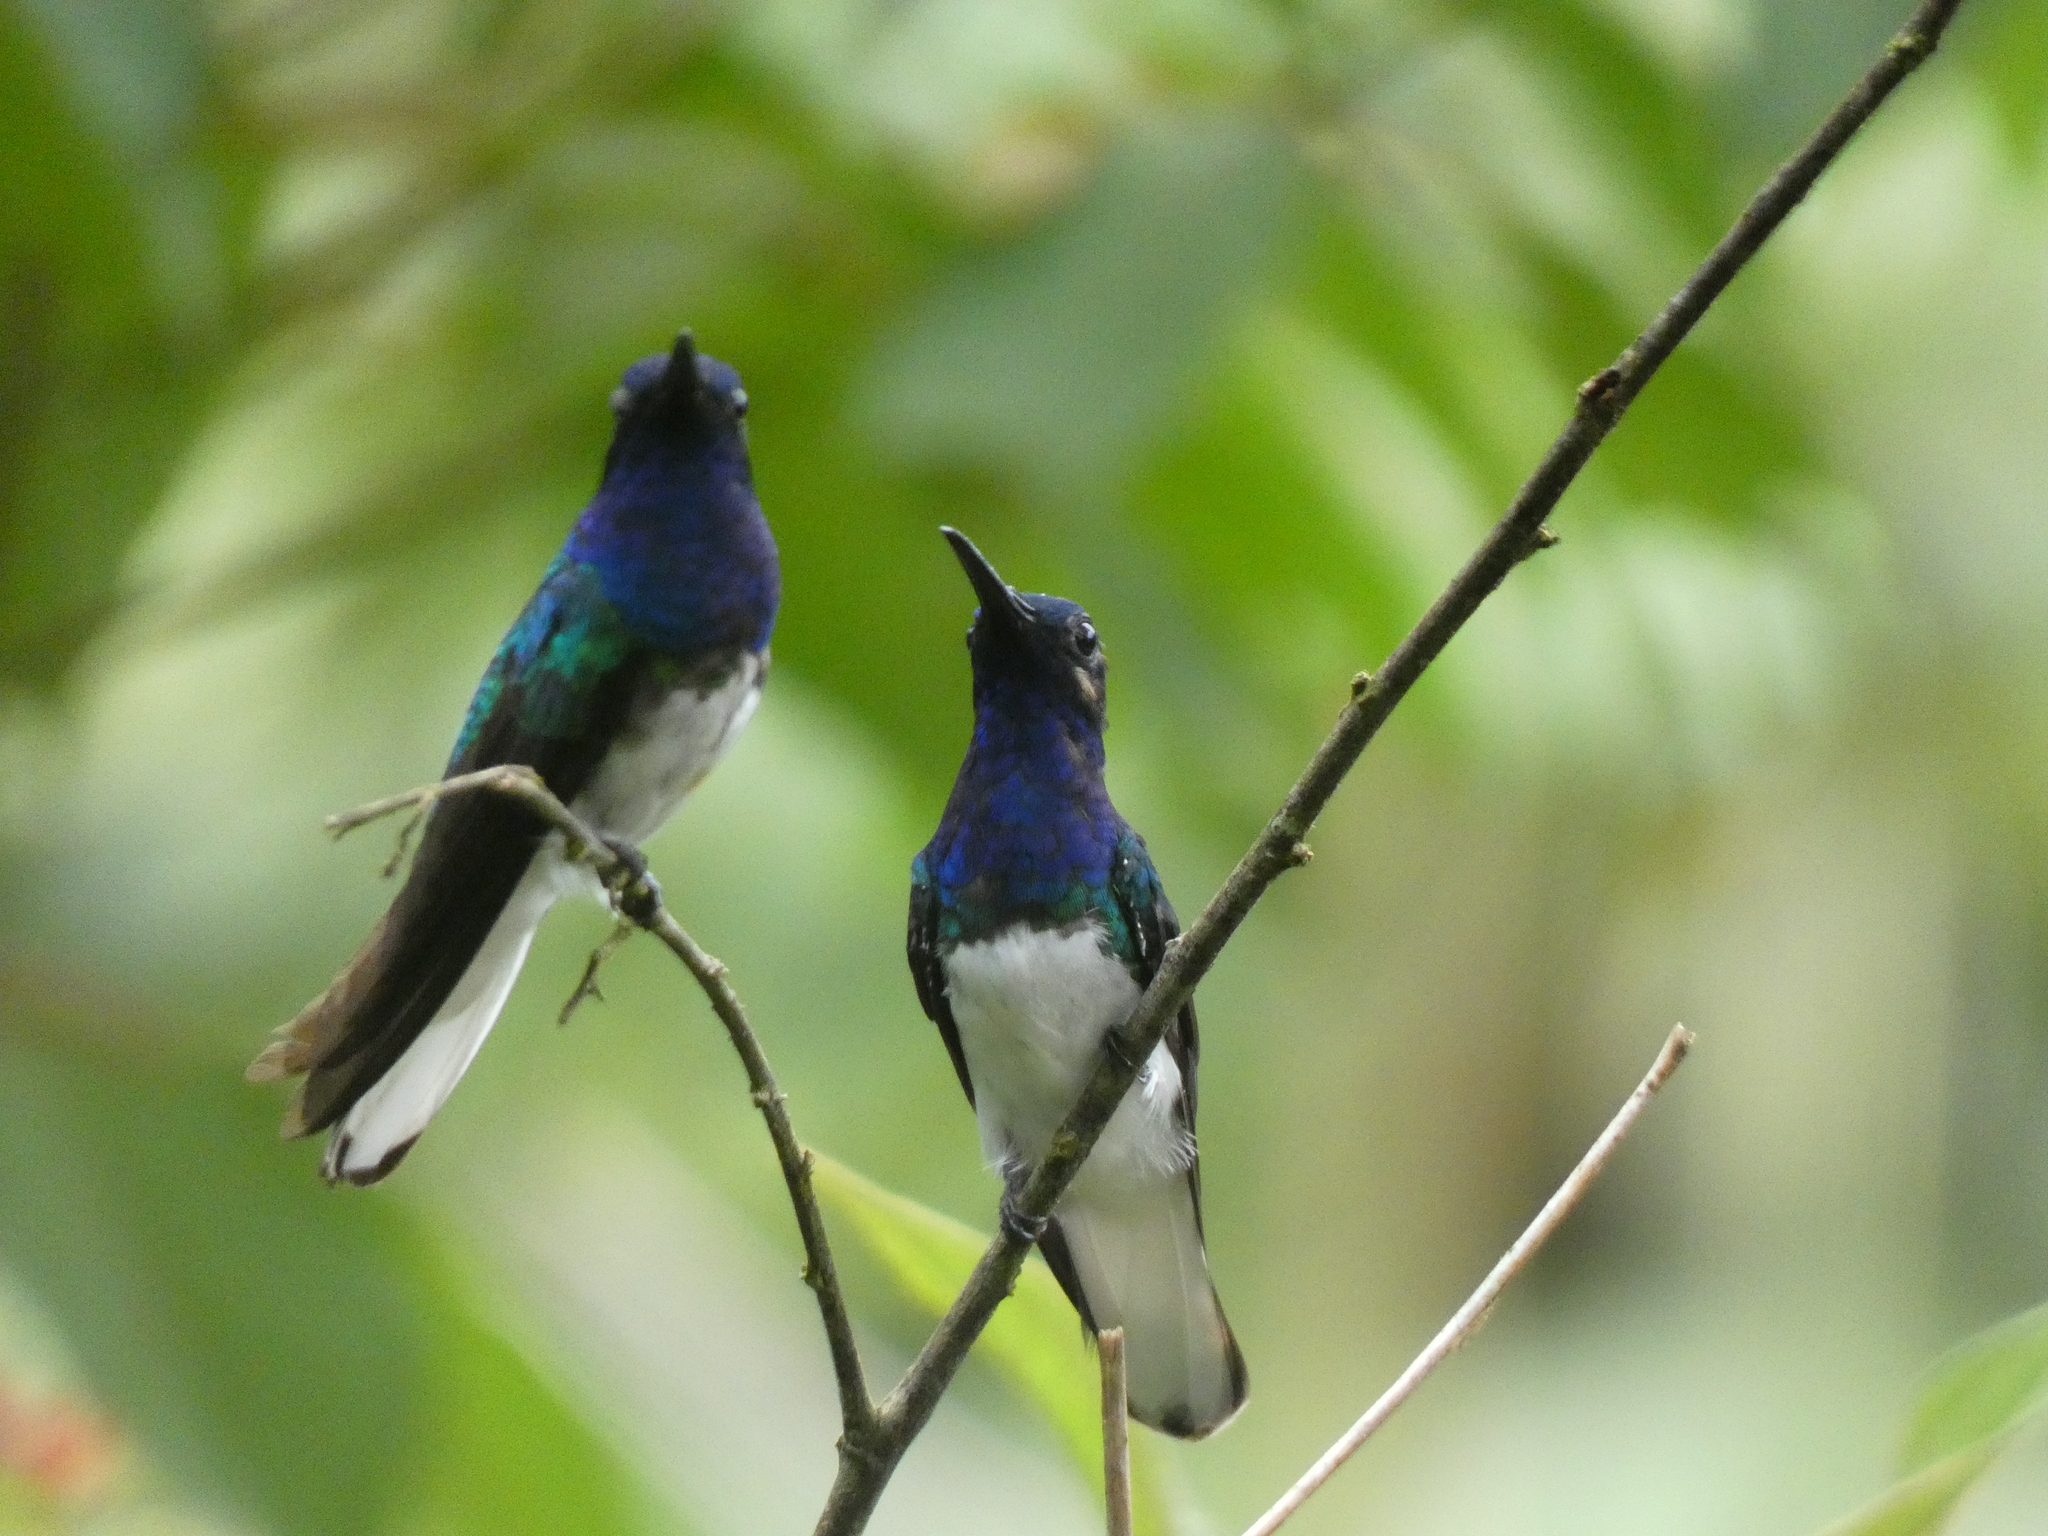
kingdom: Animalia
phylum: Chordata
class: Aves
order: Apodiformes
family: Trochilidae
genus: Florisuga
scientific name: Florisuga mellivora
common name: White-necked jacobin
